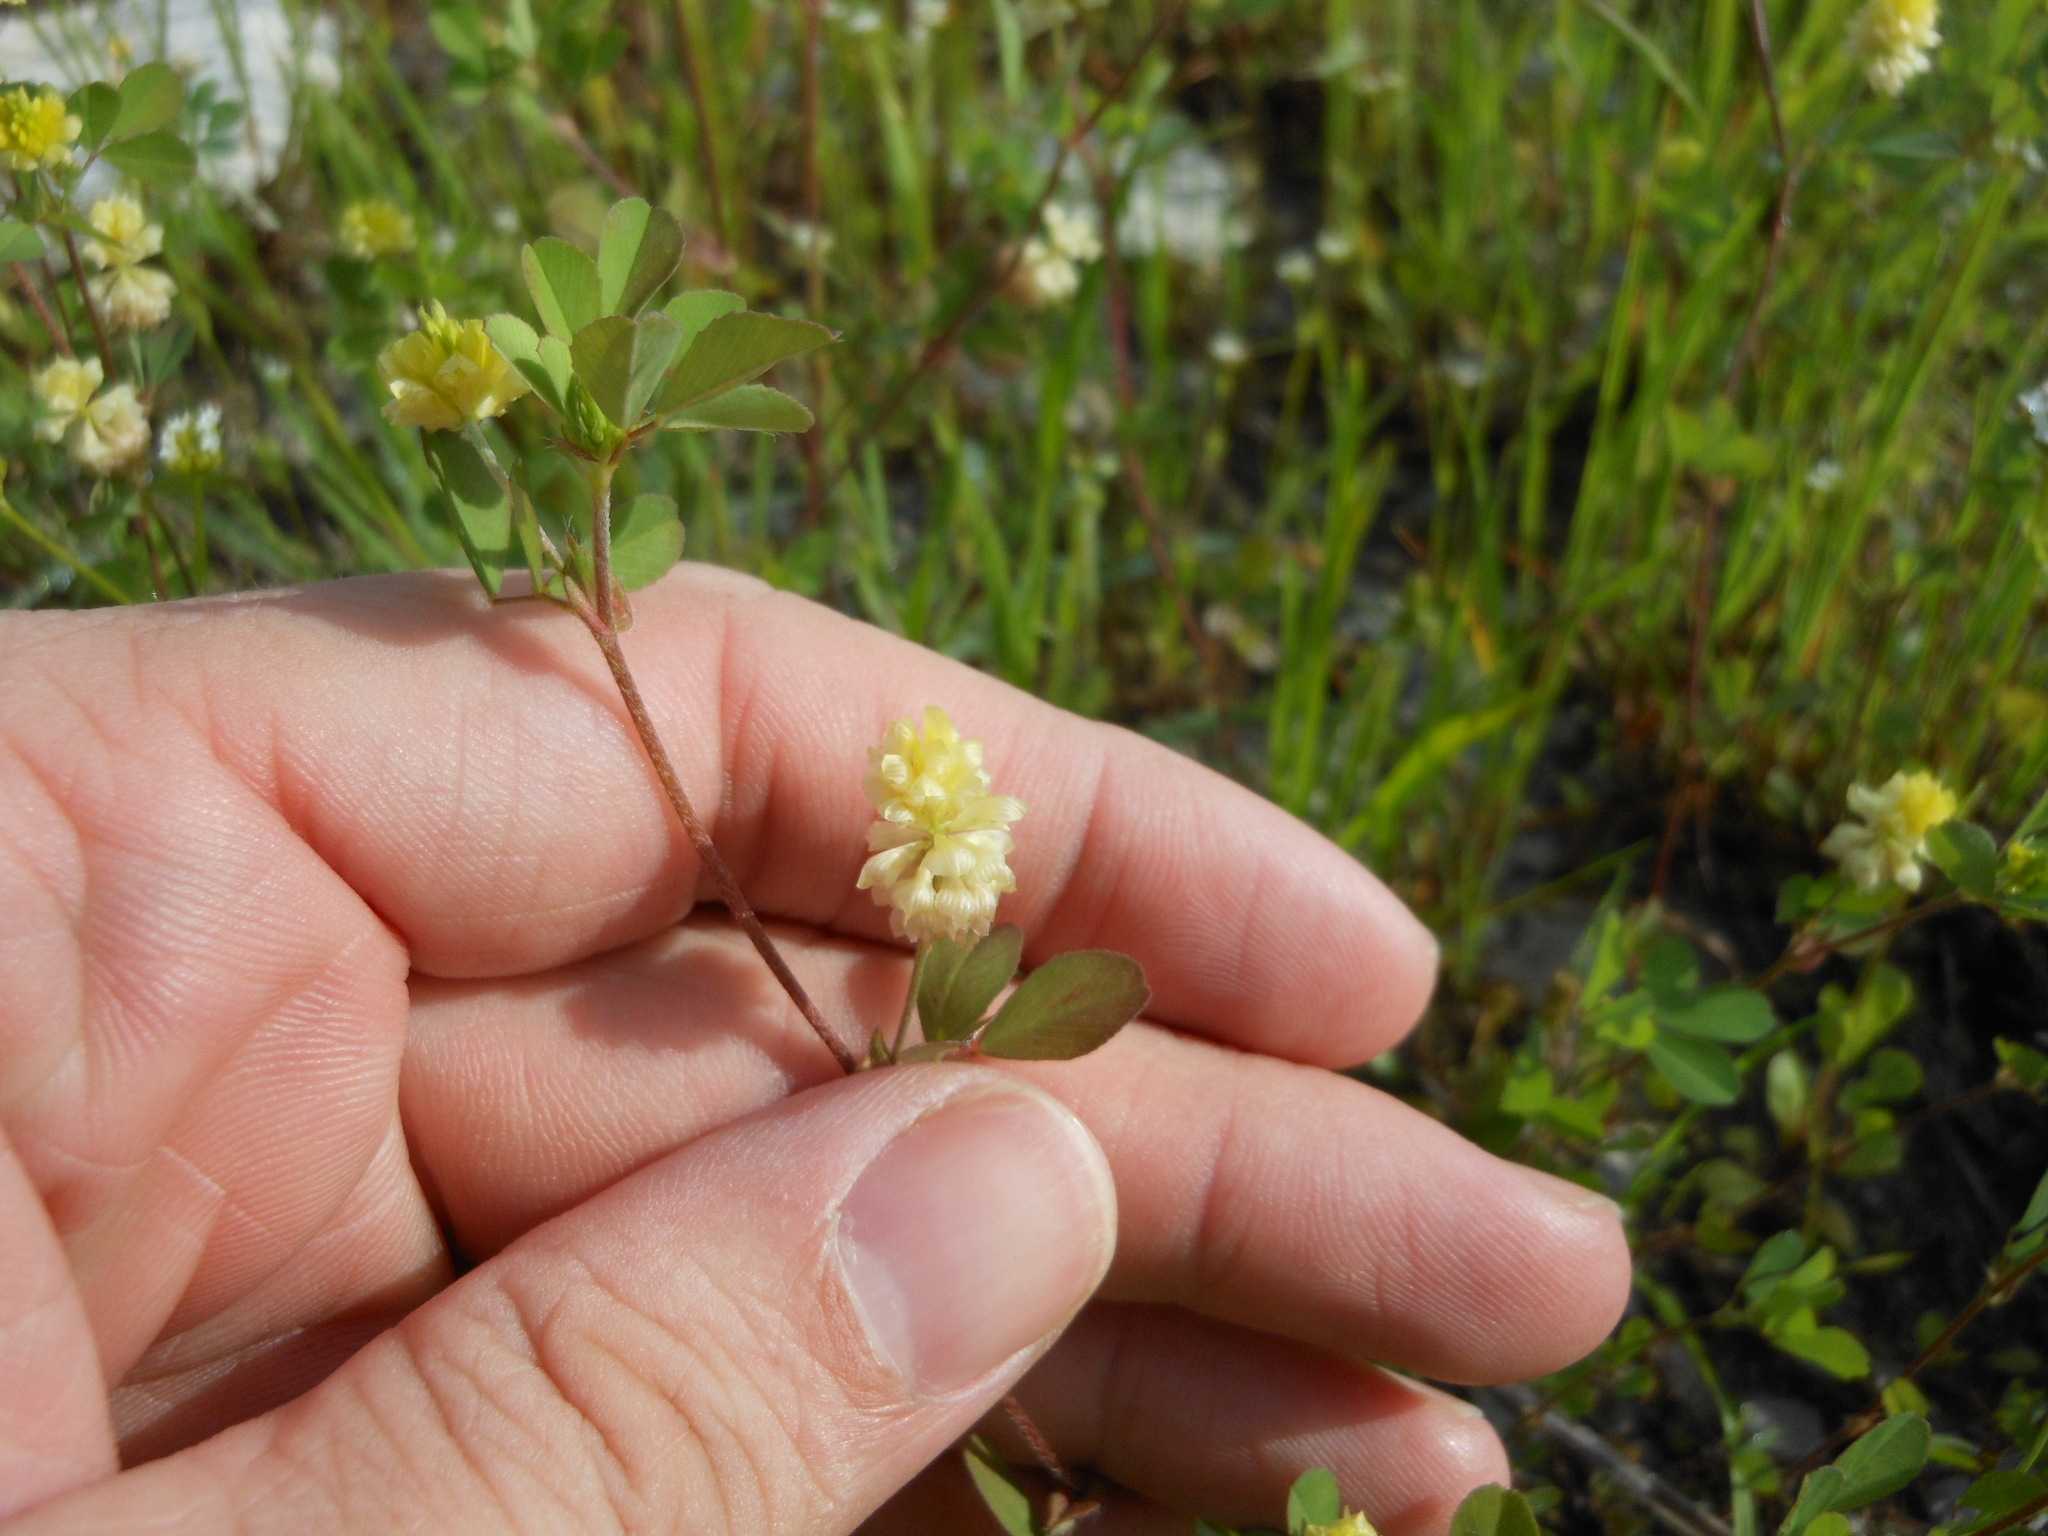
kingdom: Plantae
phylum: Tracheophyta
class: Magnoliopsida
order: Fabales
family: Fabaceae
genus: Trifolium
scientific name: Trifolium campestre
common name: Field clover
